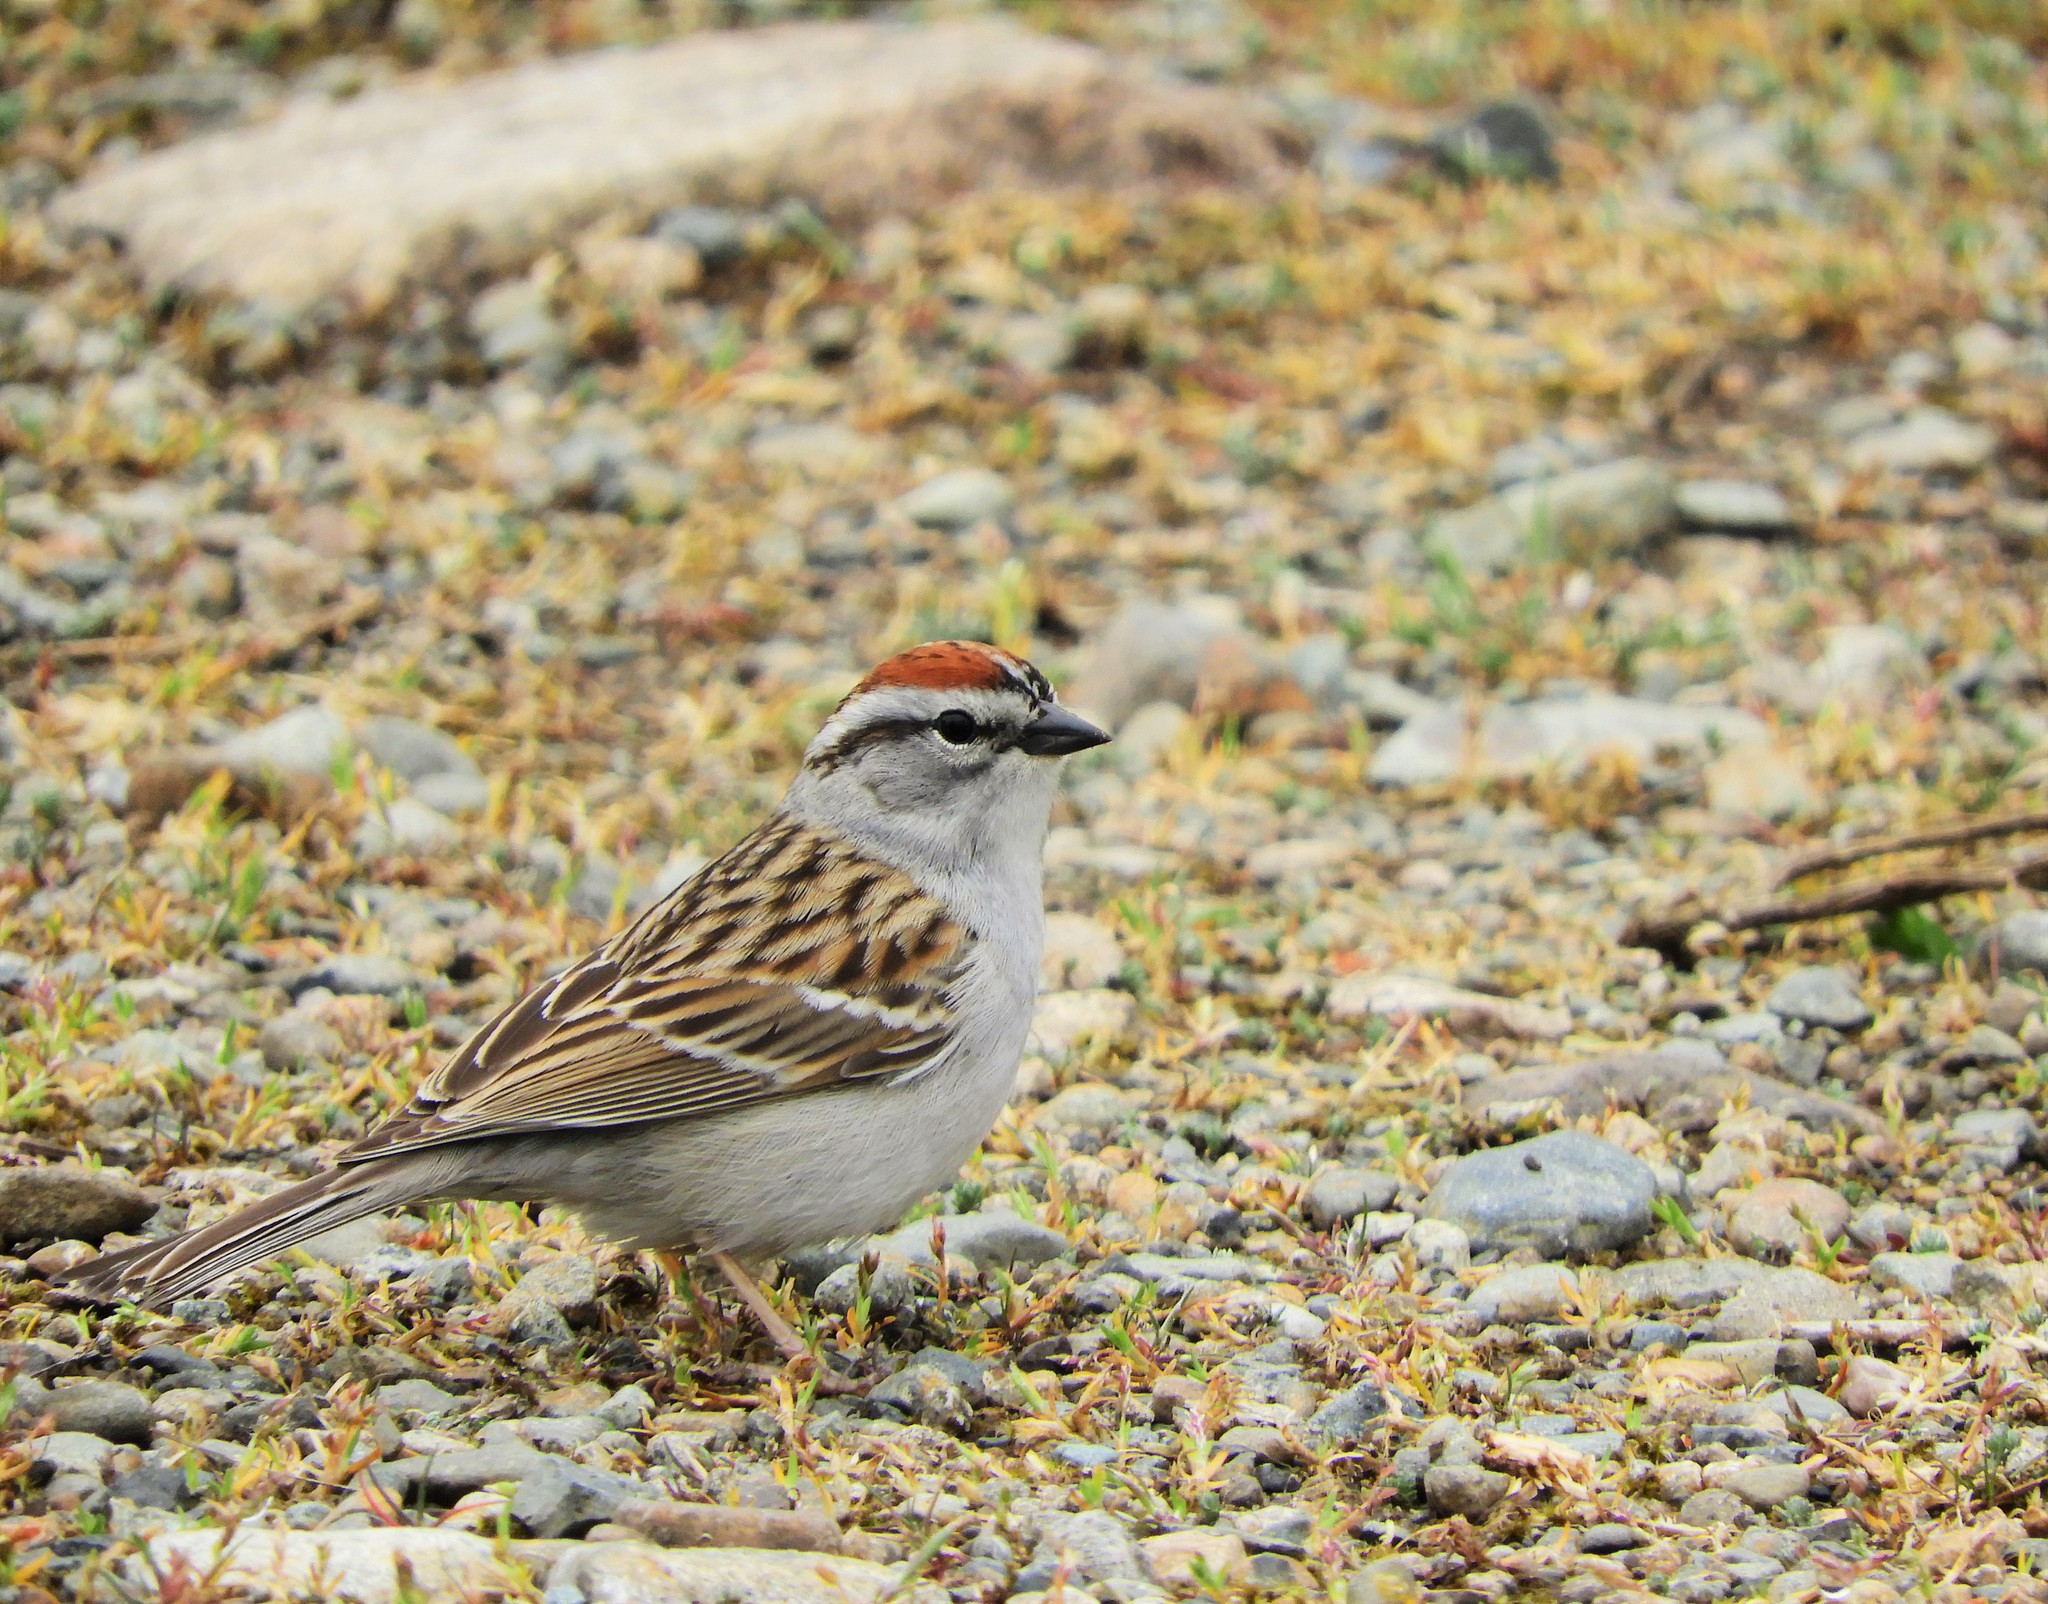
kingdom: Animalia
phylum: Chordata
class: Aves
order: Passeriformes
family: Passerellidae
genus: Spizella
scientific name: Spizella passerina
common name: Chipping sparrow
